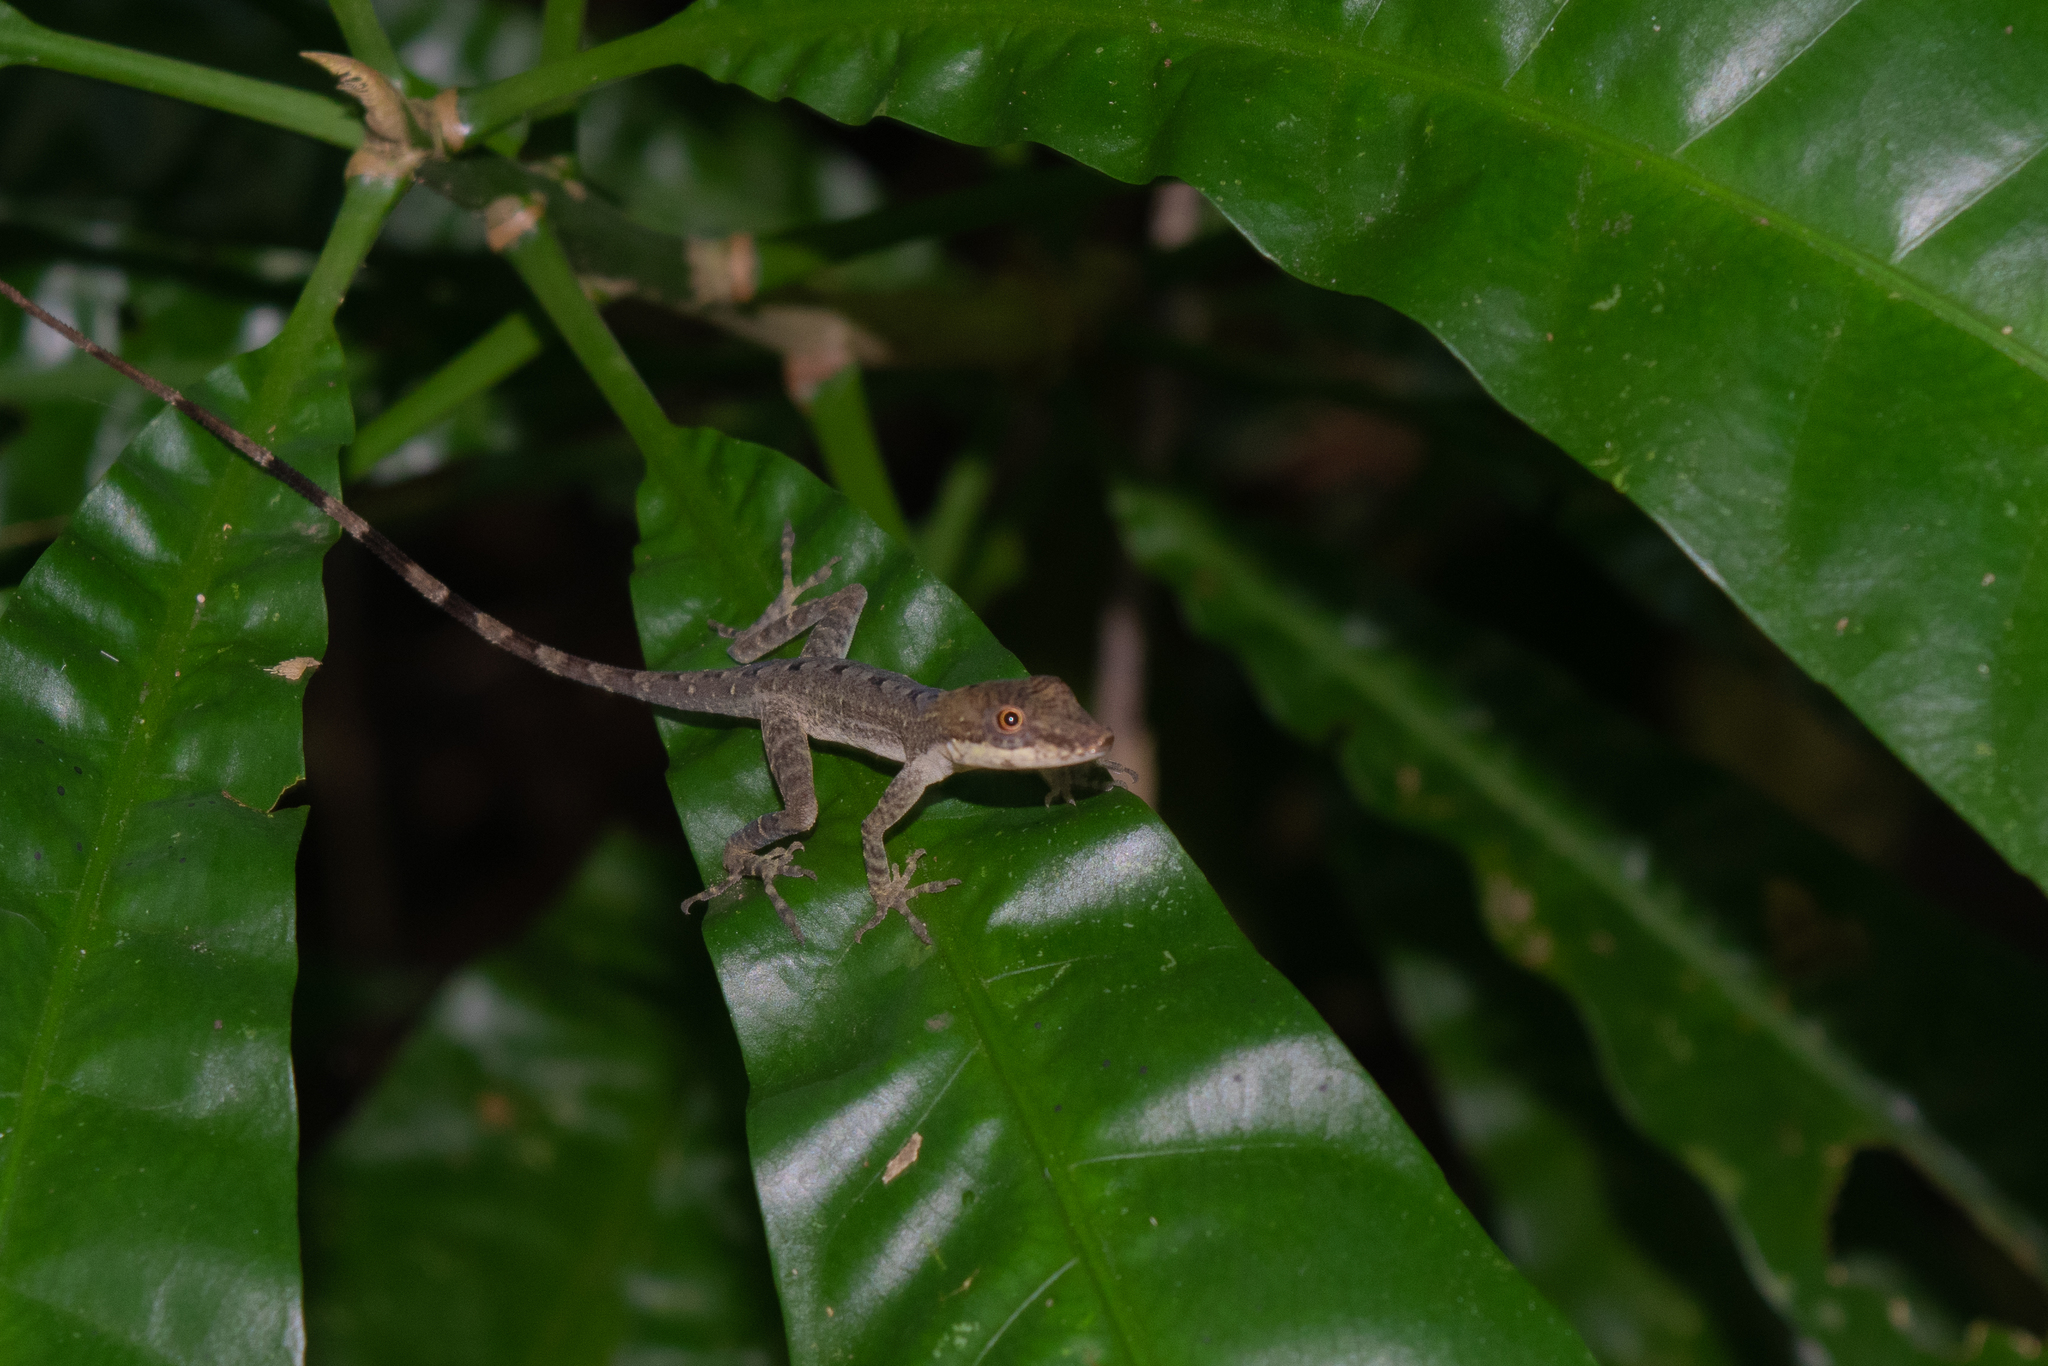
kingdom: Animalia
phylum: Chordata
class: Squamata
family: Dactyloidae
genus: Anolis
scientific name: Anolis apletophallus
